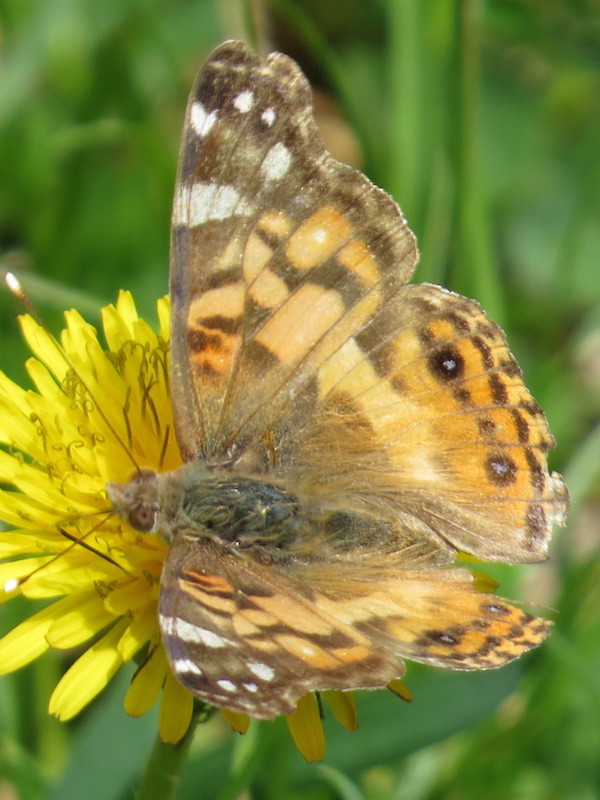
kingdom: Animalia
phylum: Arthropoda
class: Insecta
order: Lepidoptera
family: Nymphalidae
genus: Vanessa
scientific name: Vanessa virginiensis
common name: American lady
